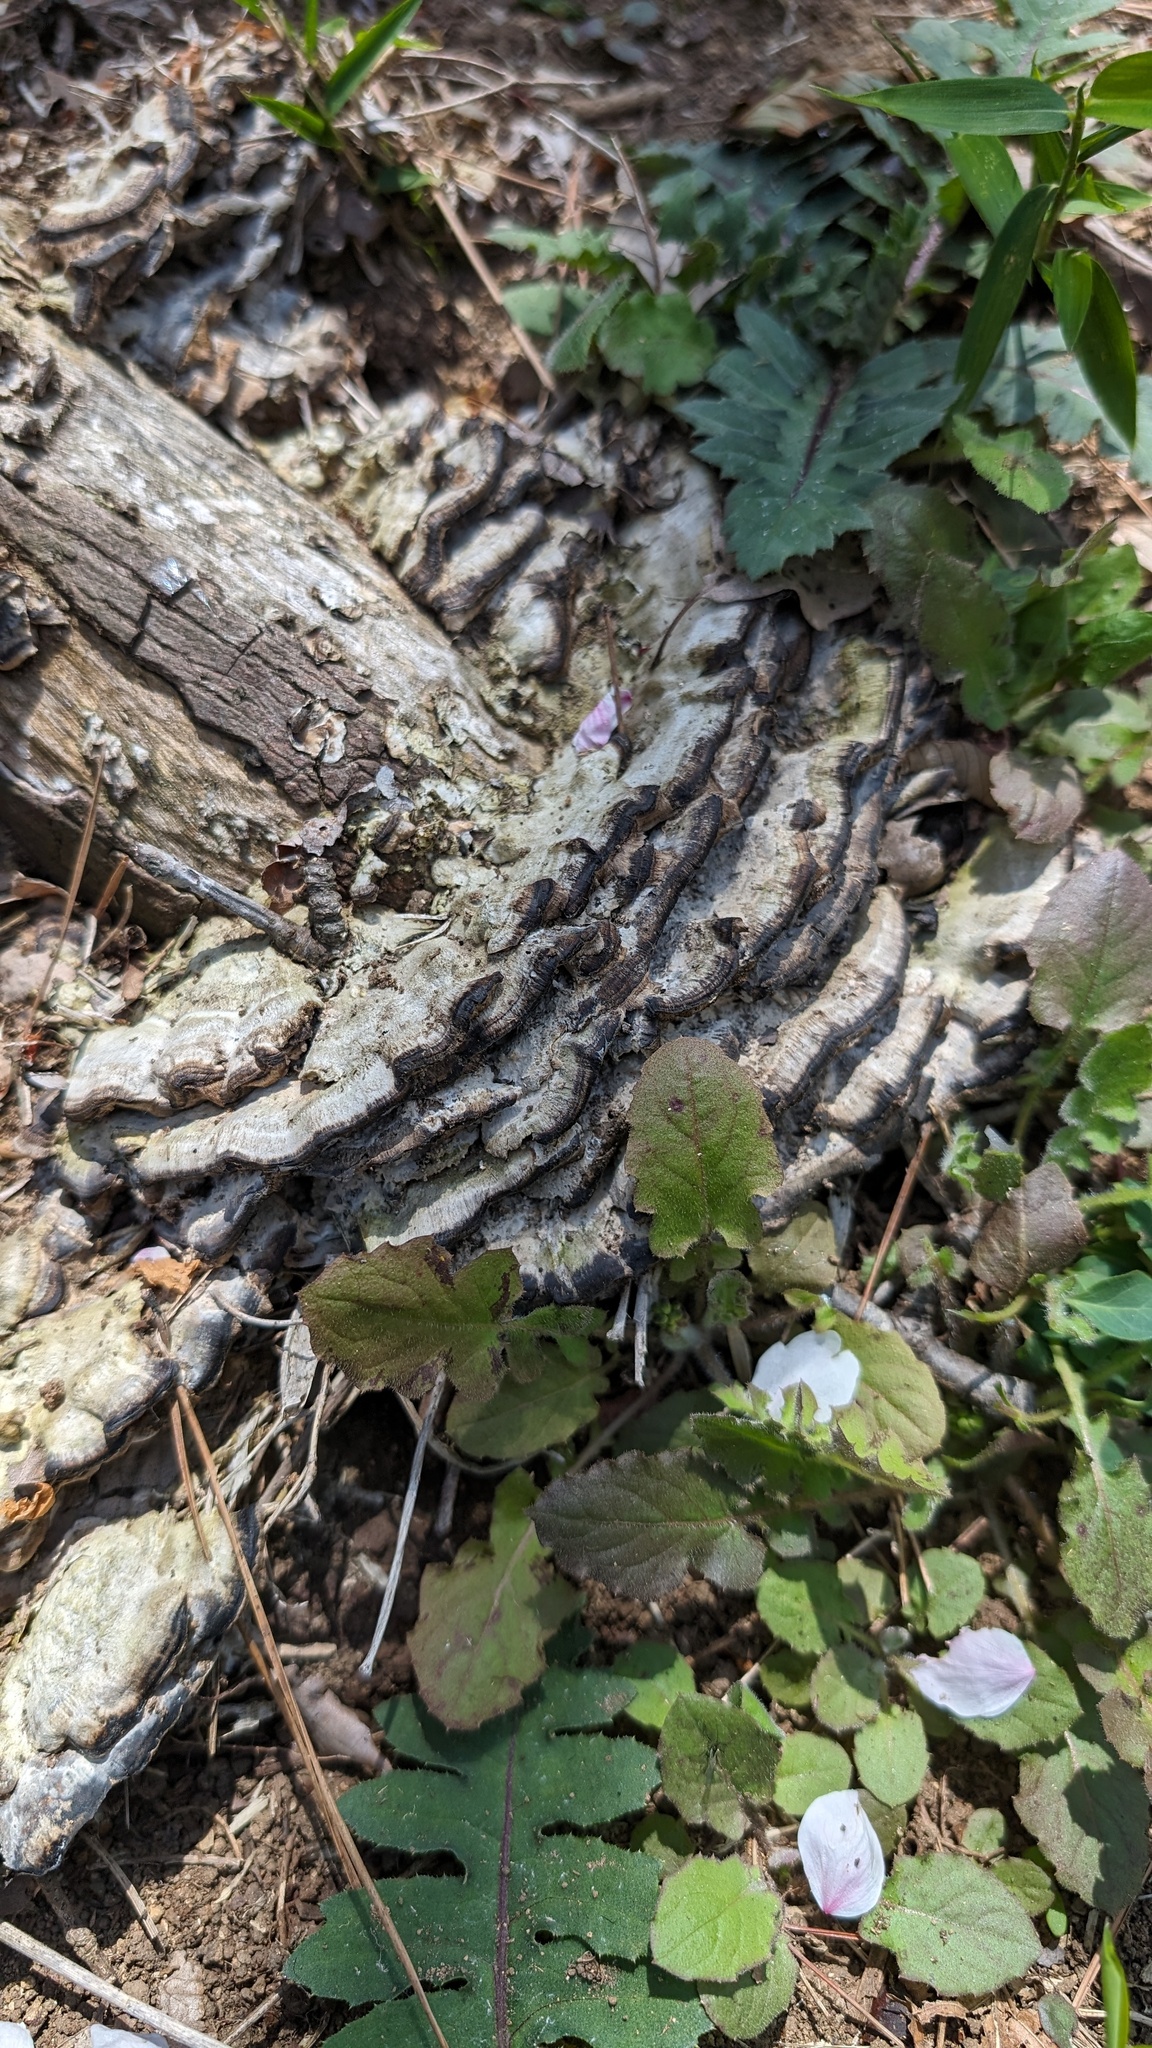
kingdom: Fungi
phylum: Basidiomycota
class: Agaricomycetes
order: Polyporales
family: Phanerochaetaceae
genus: Bjerkandera
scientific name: Bjerkandera adusta
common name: Smoky bracket
